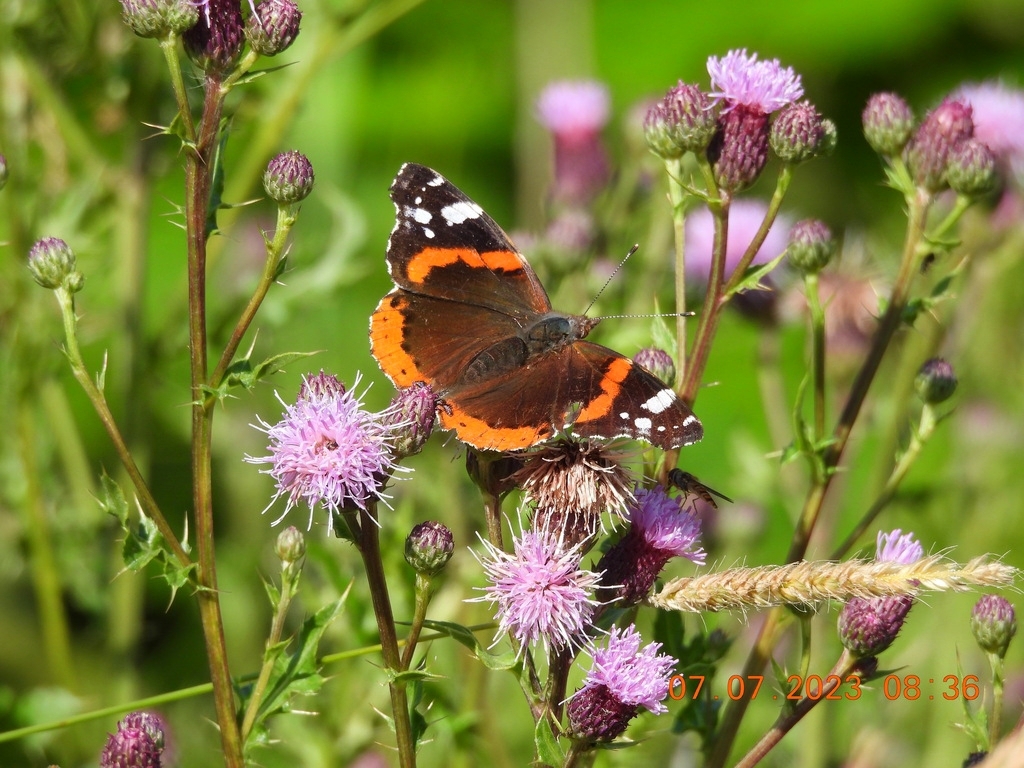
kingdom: Animalia
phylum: Arthropoda
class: Insecta
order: Lepidoptera
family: Nymphalidae
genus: Vanessa
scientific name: Vanessa atalanta
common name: Red admiral
